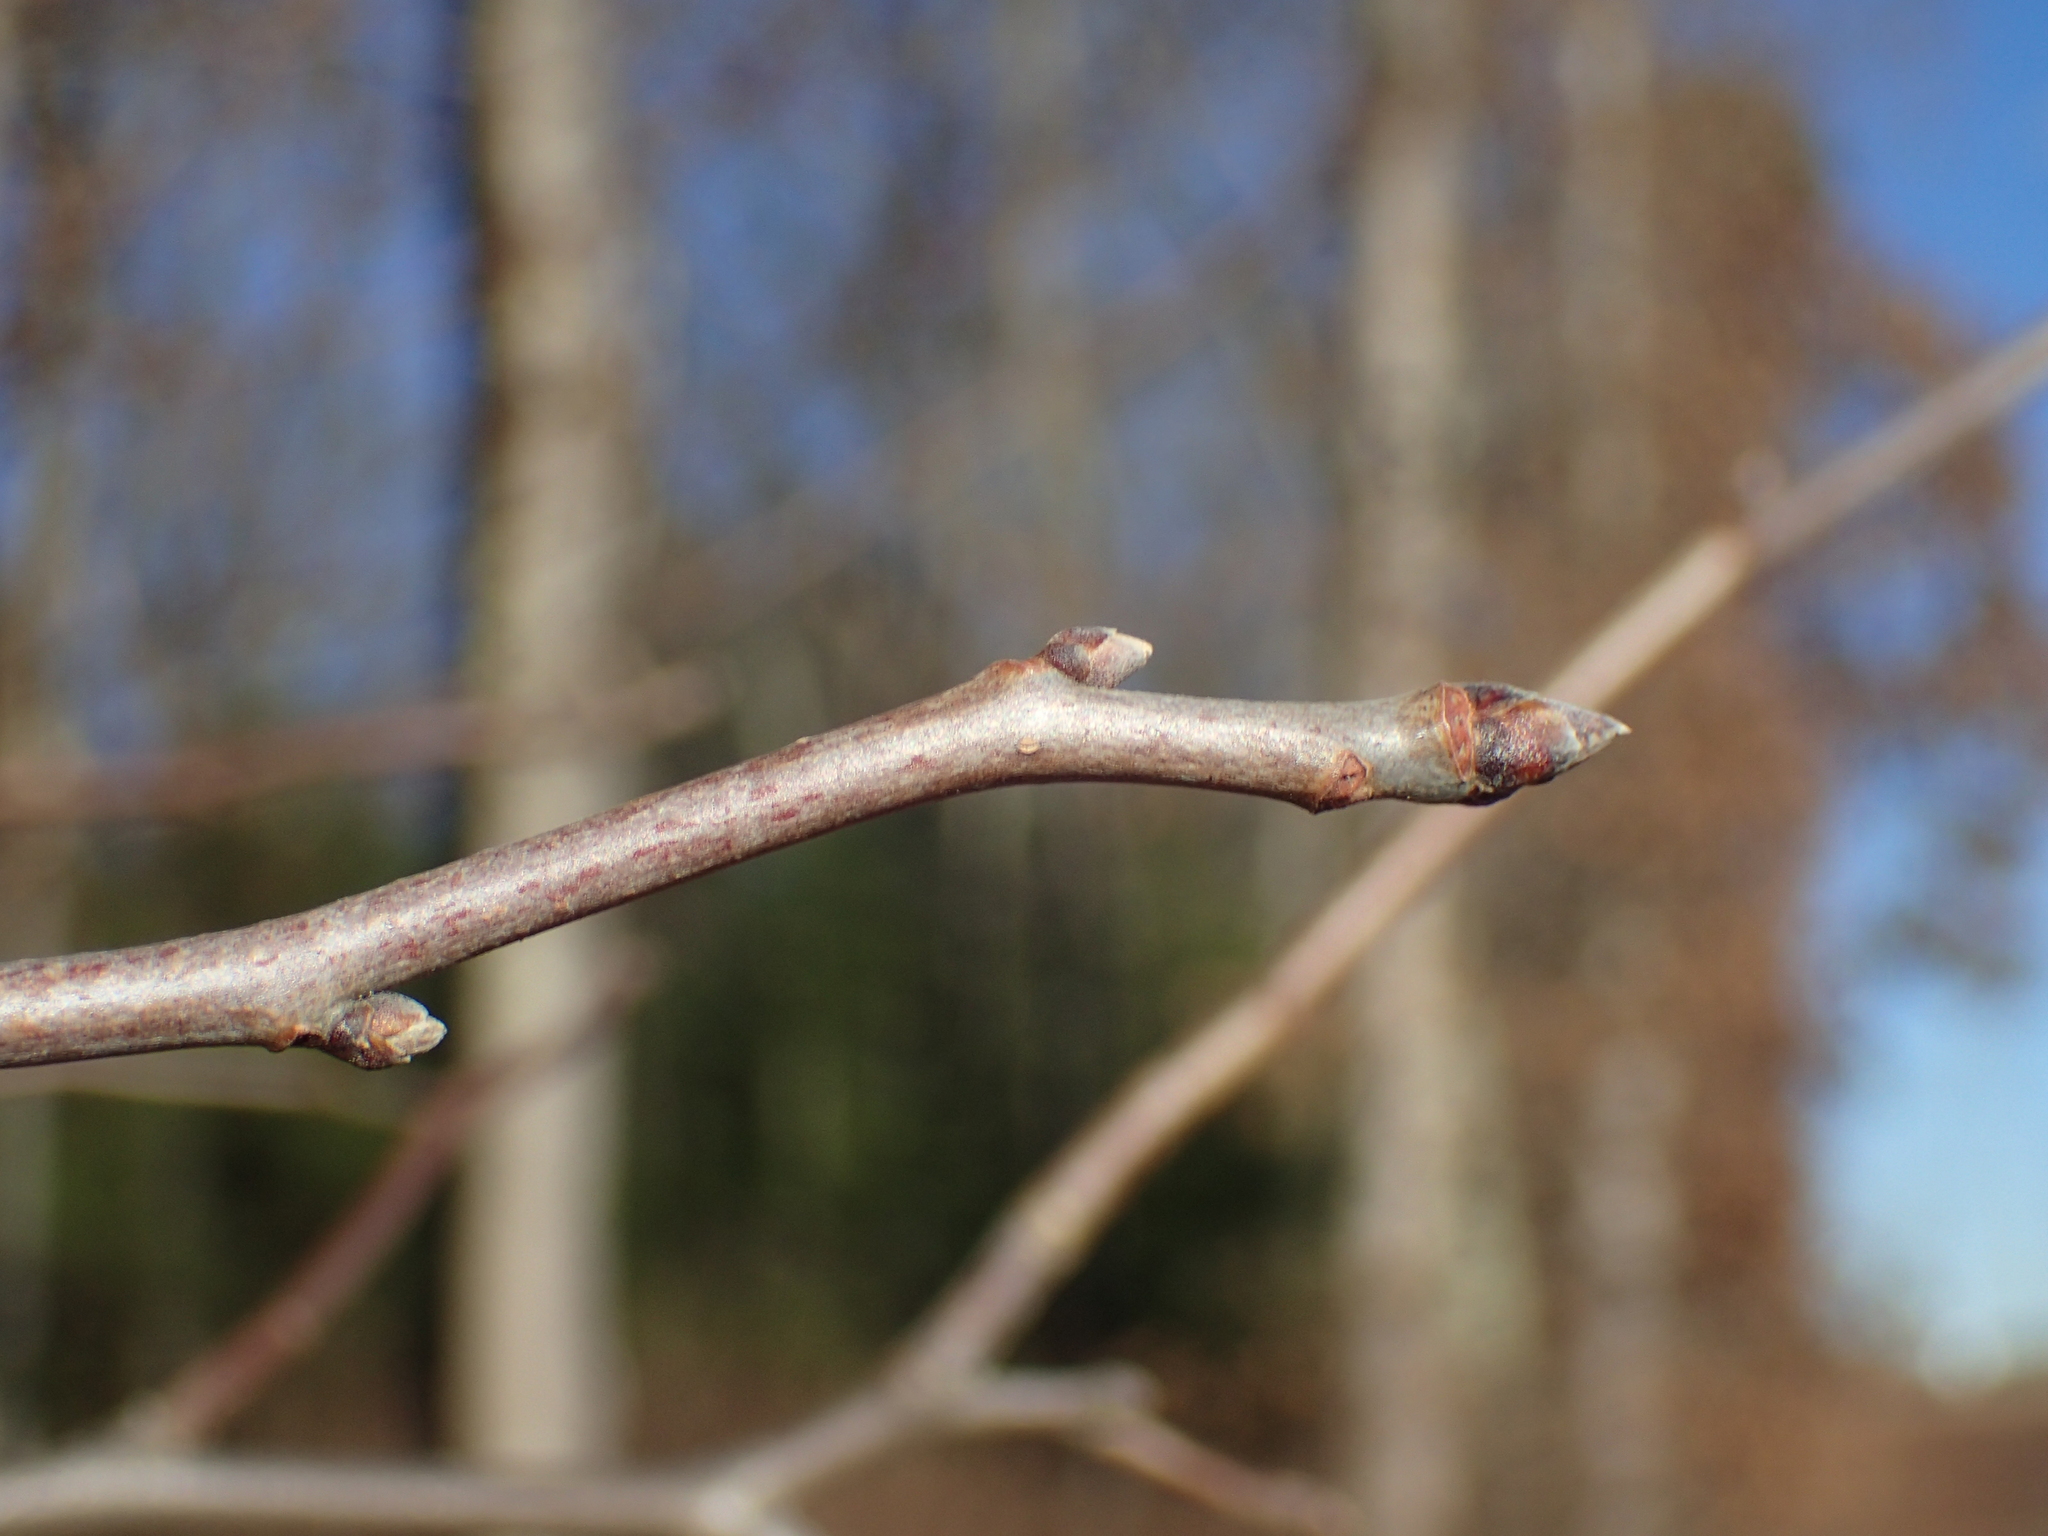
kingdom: Plantae
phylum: Tracheophyta
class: Magnoliopsida
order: Cornales
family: Nyssaceae
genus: Nyssa
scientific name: Nyssa sylvatica
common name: Black tupelo
